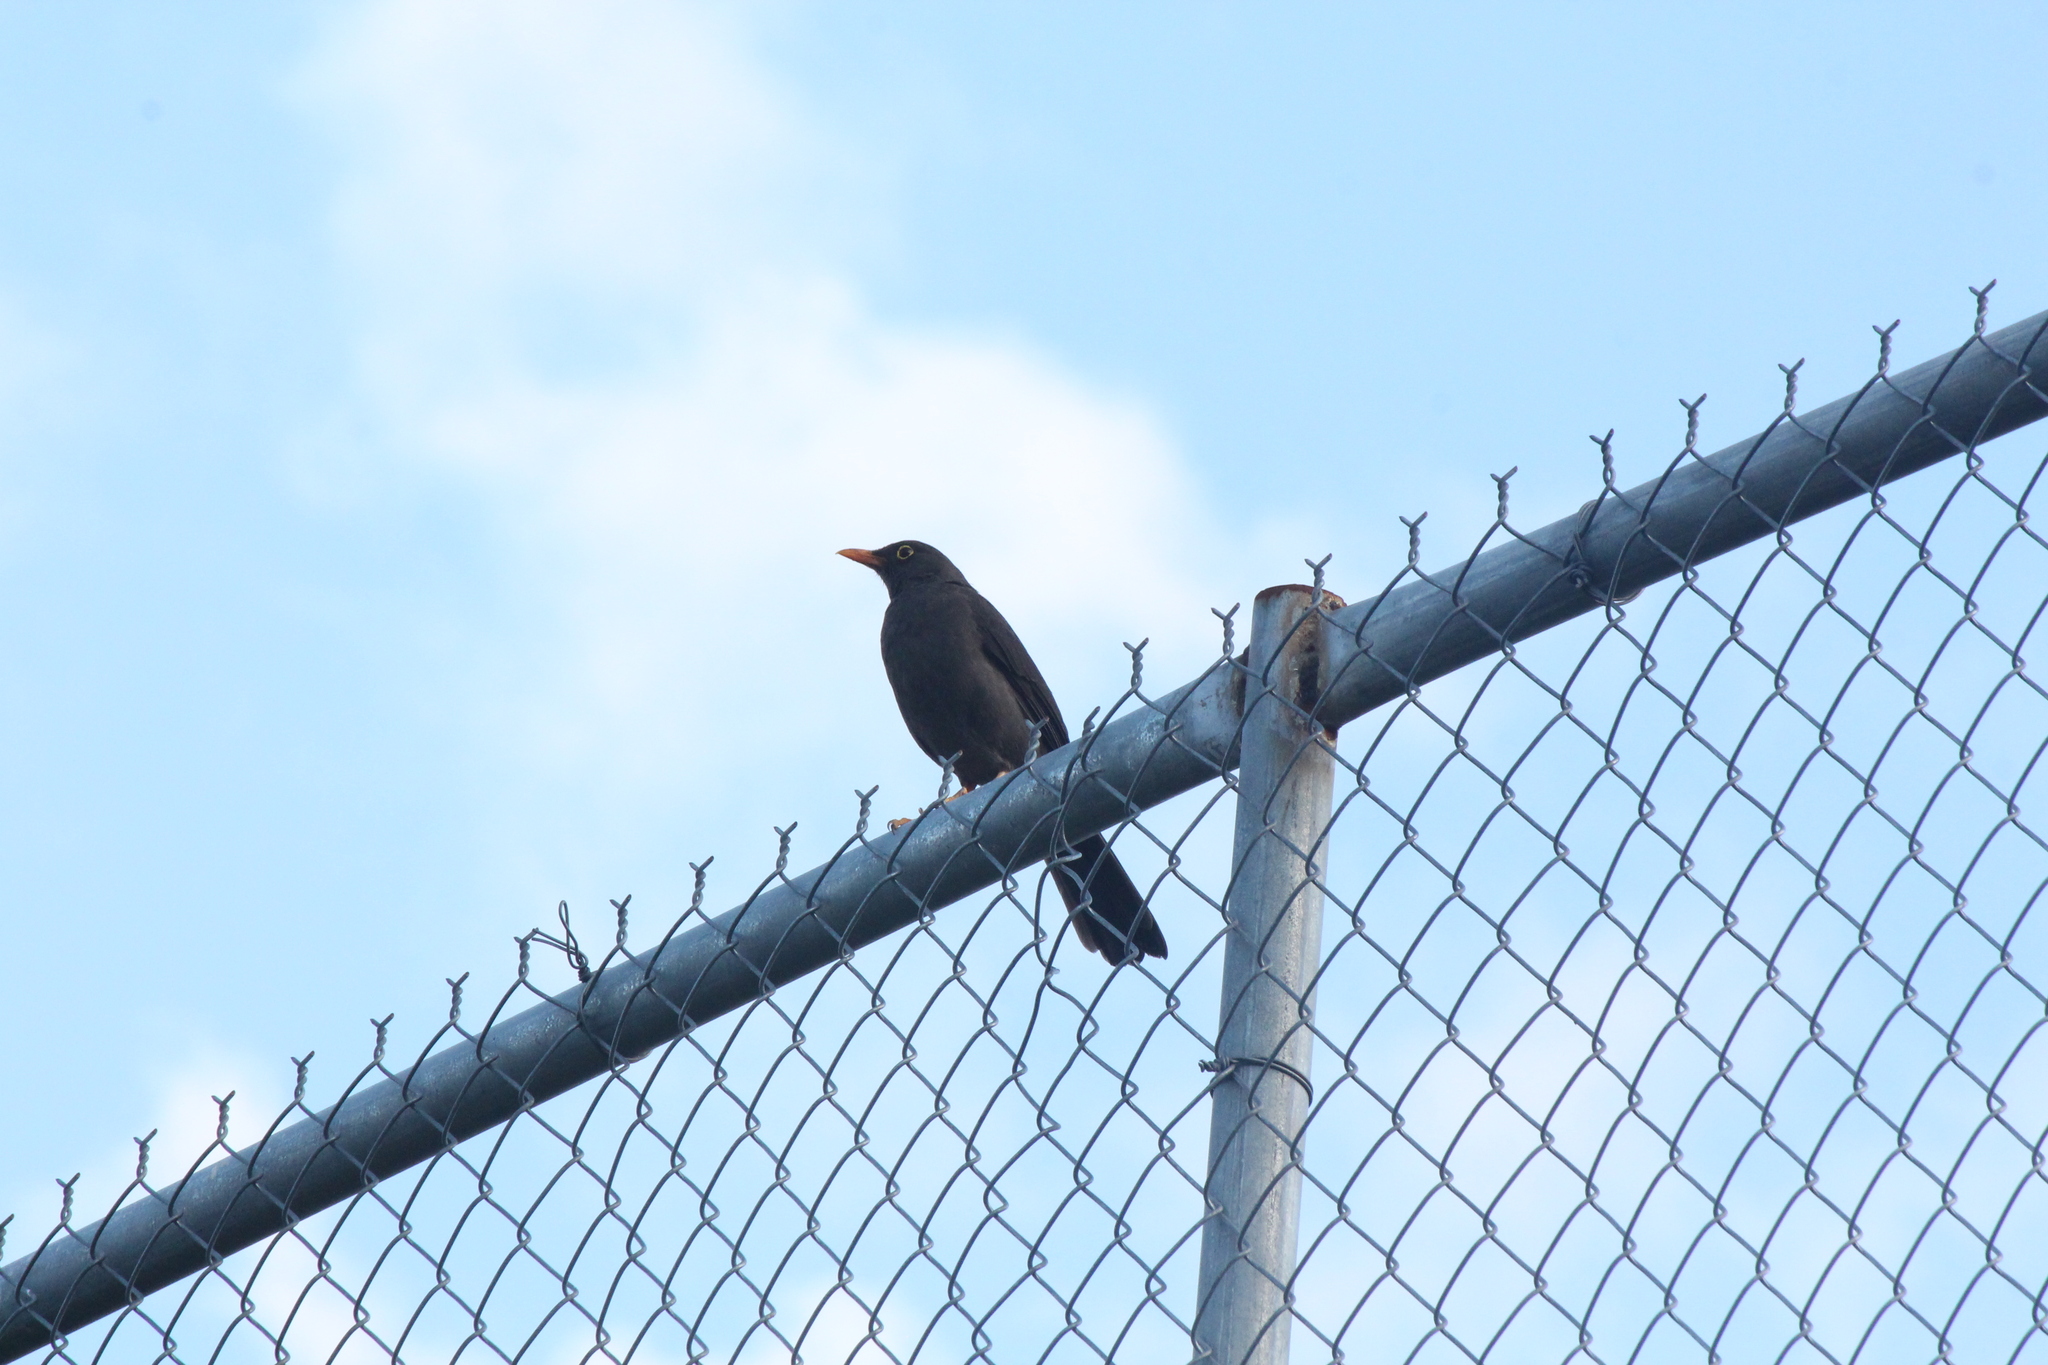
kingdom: Animalia
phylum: Chordata
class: Aves
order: Passeriformes
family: Turdidae
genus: Turdus
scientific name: Turdus fuscater
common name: Great thrush
